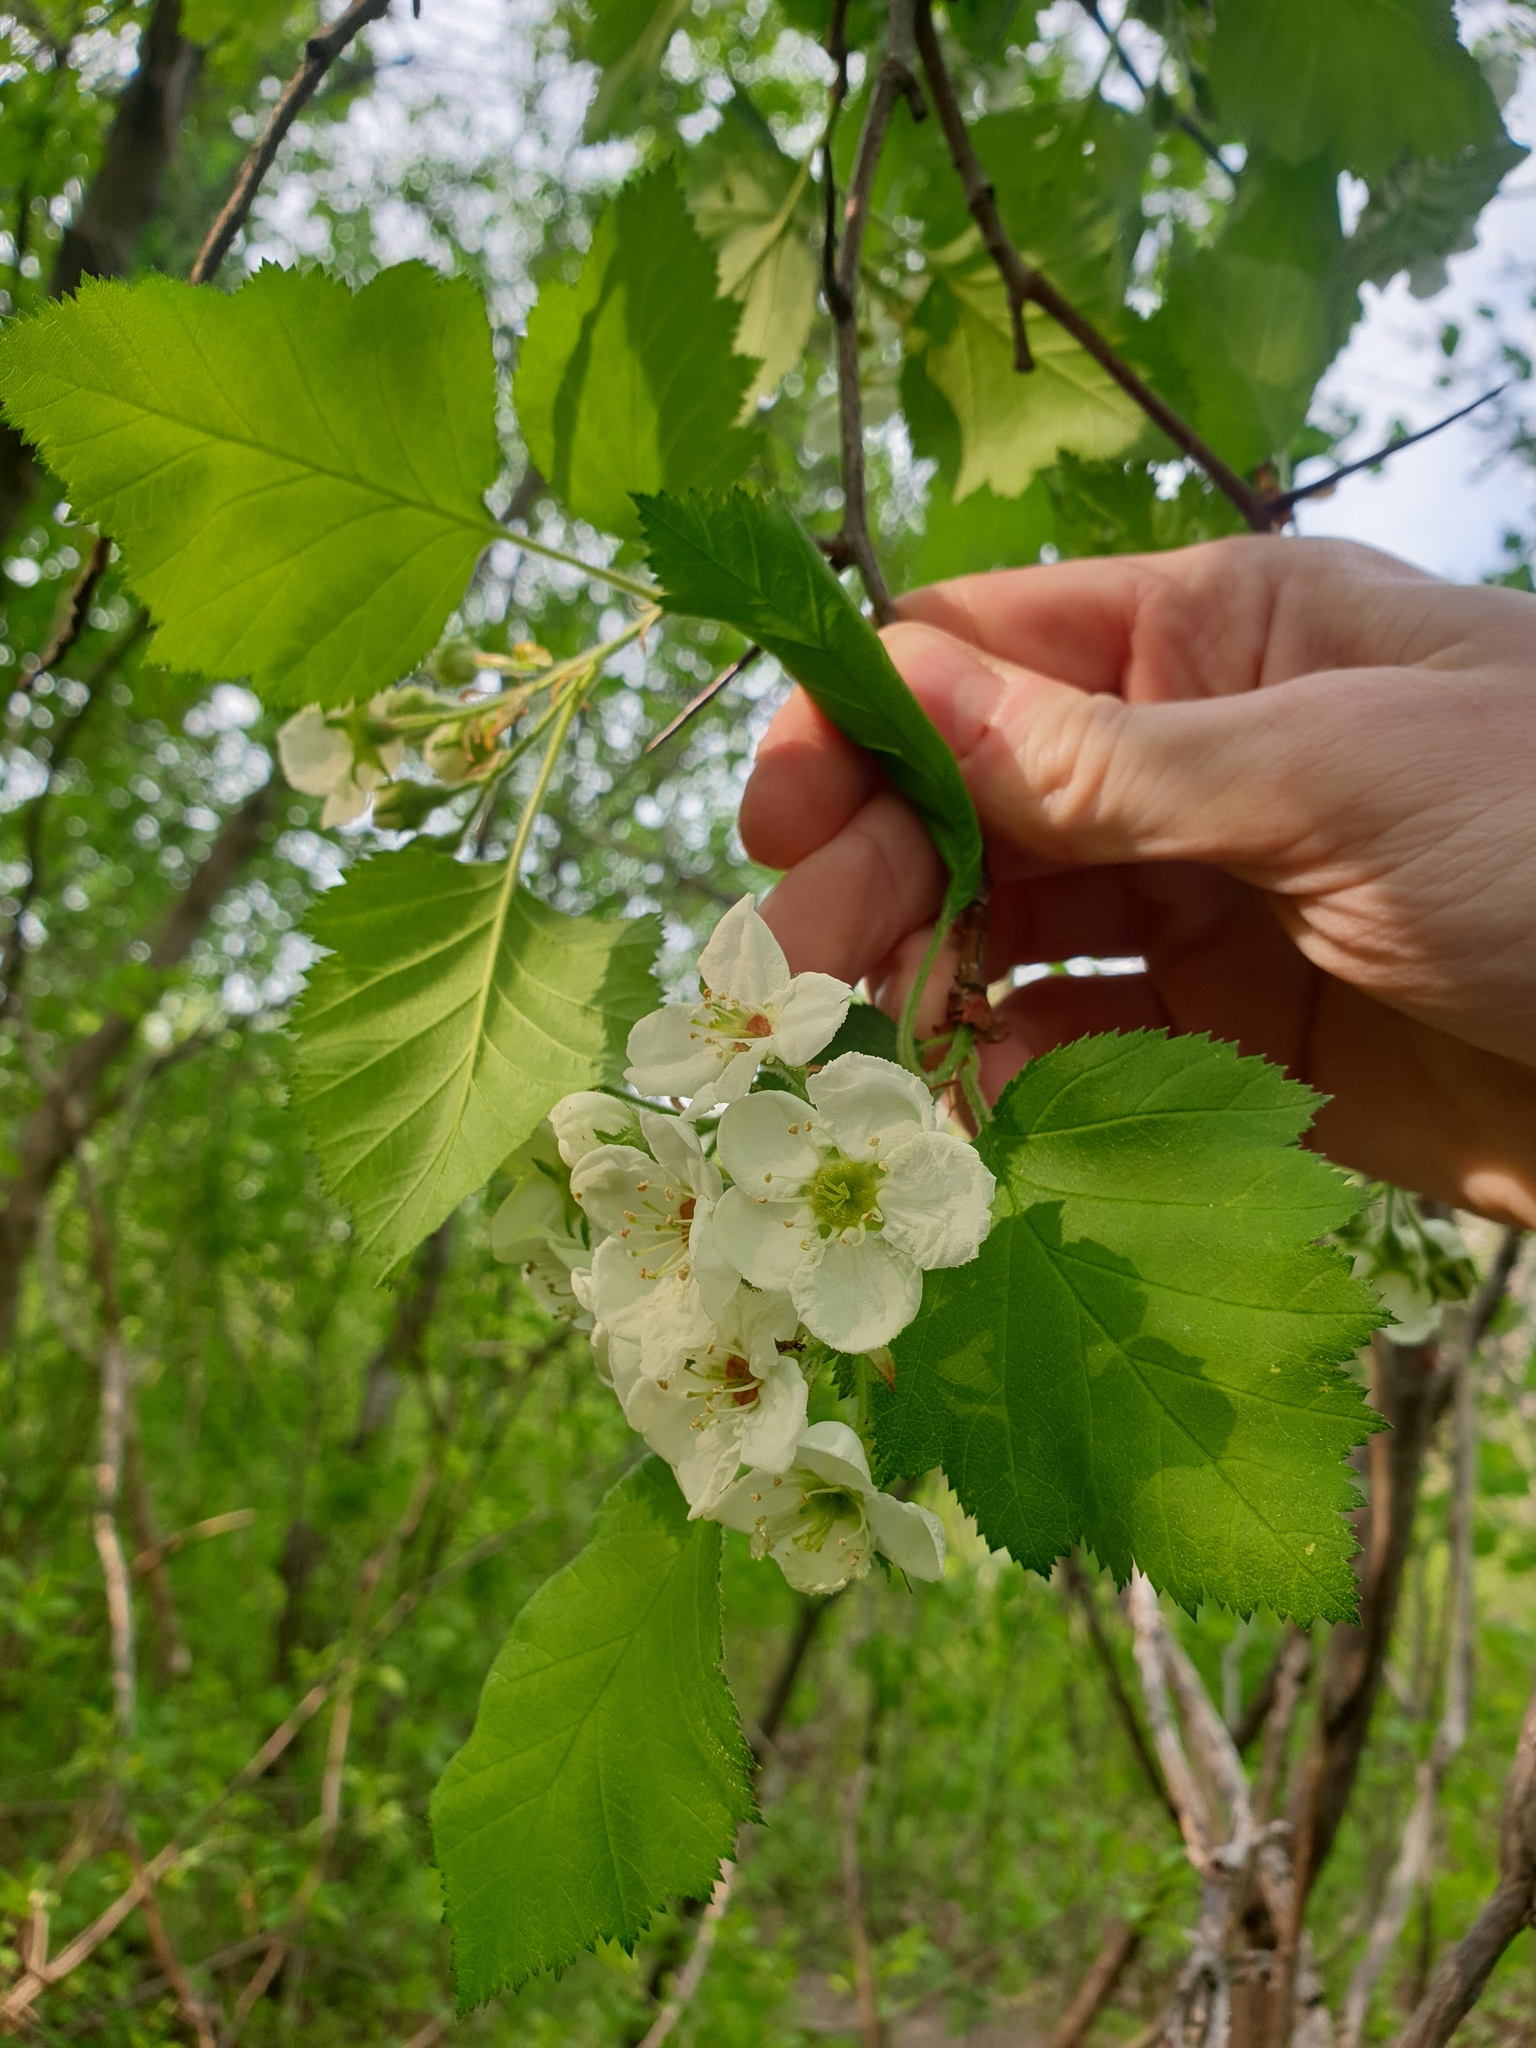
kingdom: Plantae
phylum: Tracheophyta
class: Magnoliopsida
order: Rosales
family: Rosaceae
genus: Crataegus
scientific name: Crataegus submollis
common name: Hairy cockspurthorn
